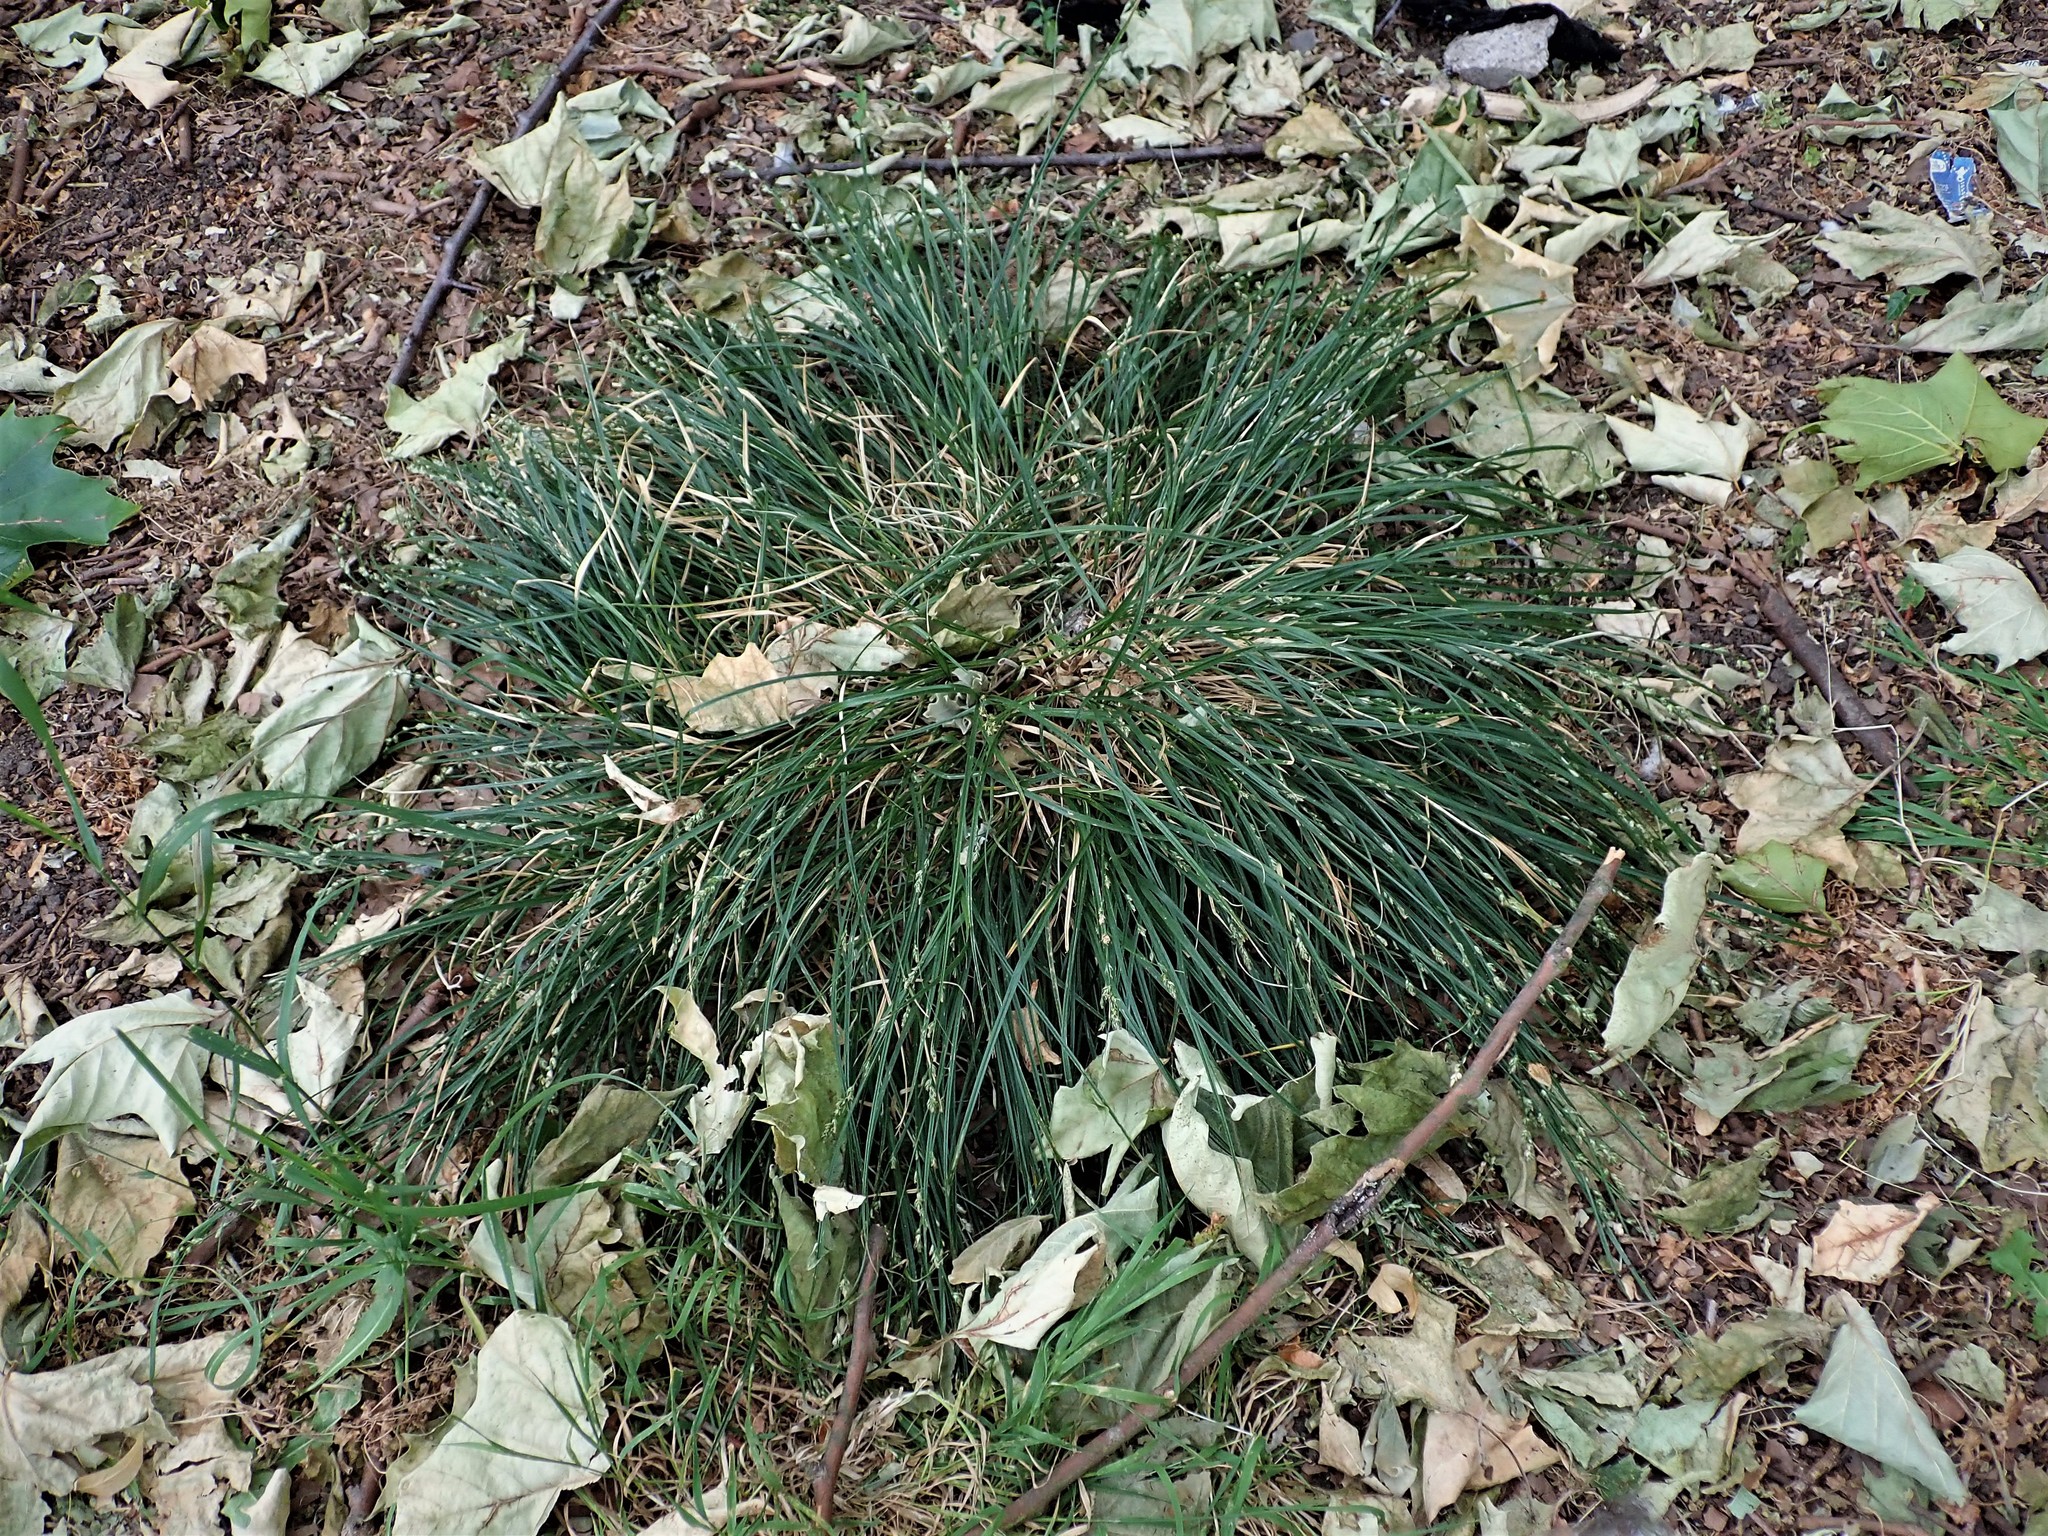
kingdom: Plantae
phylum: Tracheophyta
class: Liliopsida
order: Poales
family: Cyperaceae
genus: Carex
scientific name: Carex divulsa
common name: Grassland sedge
